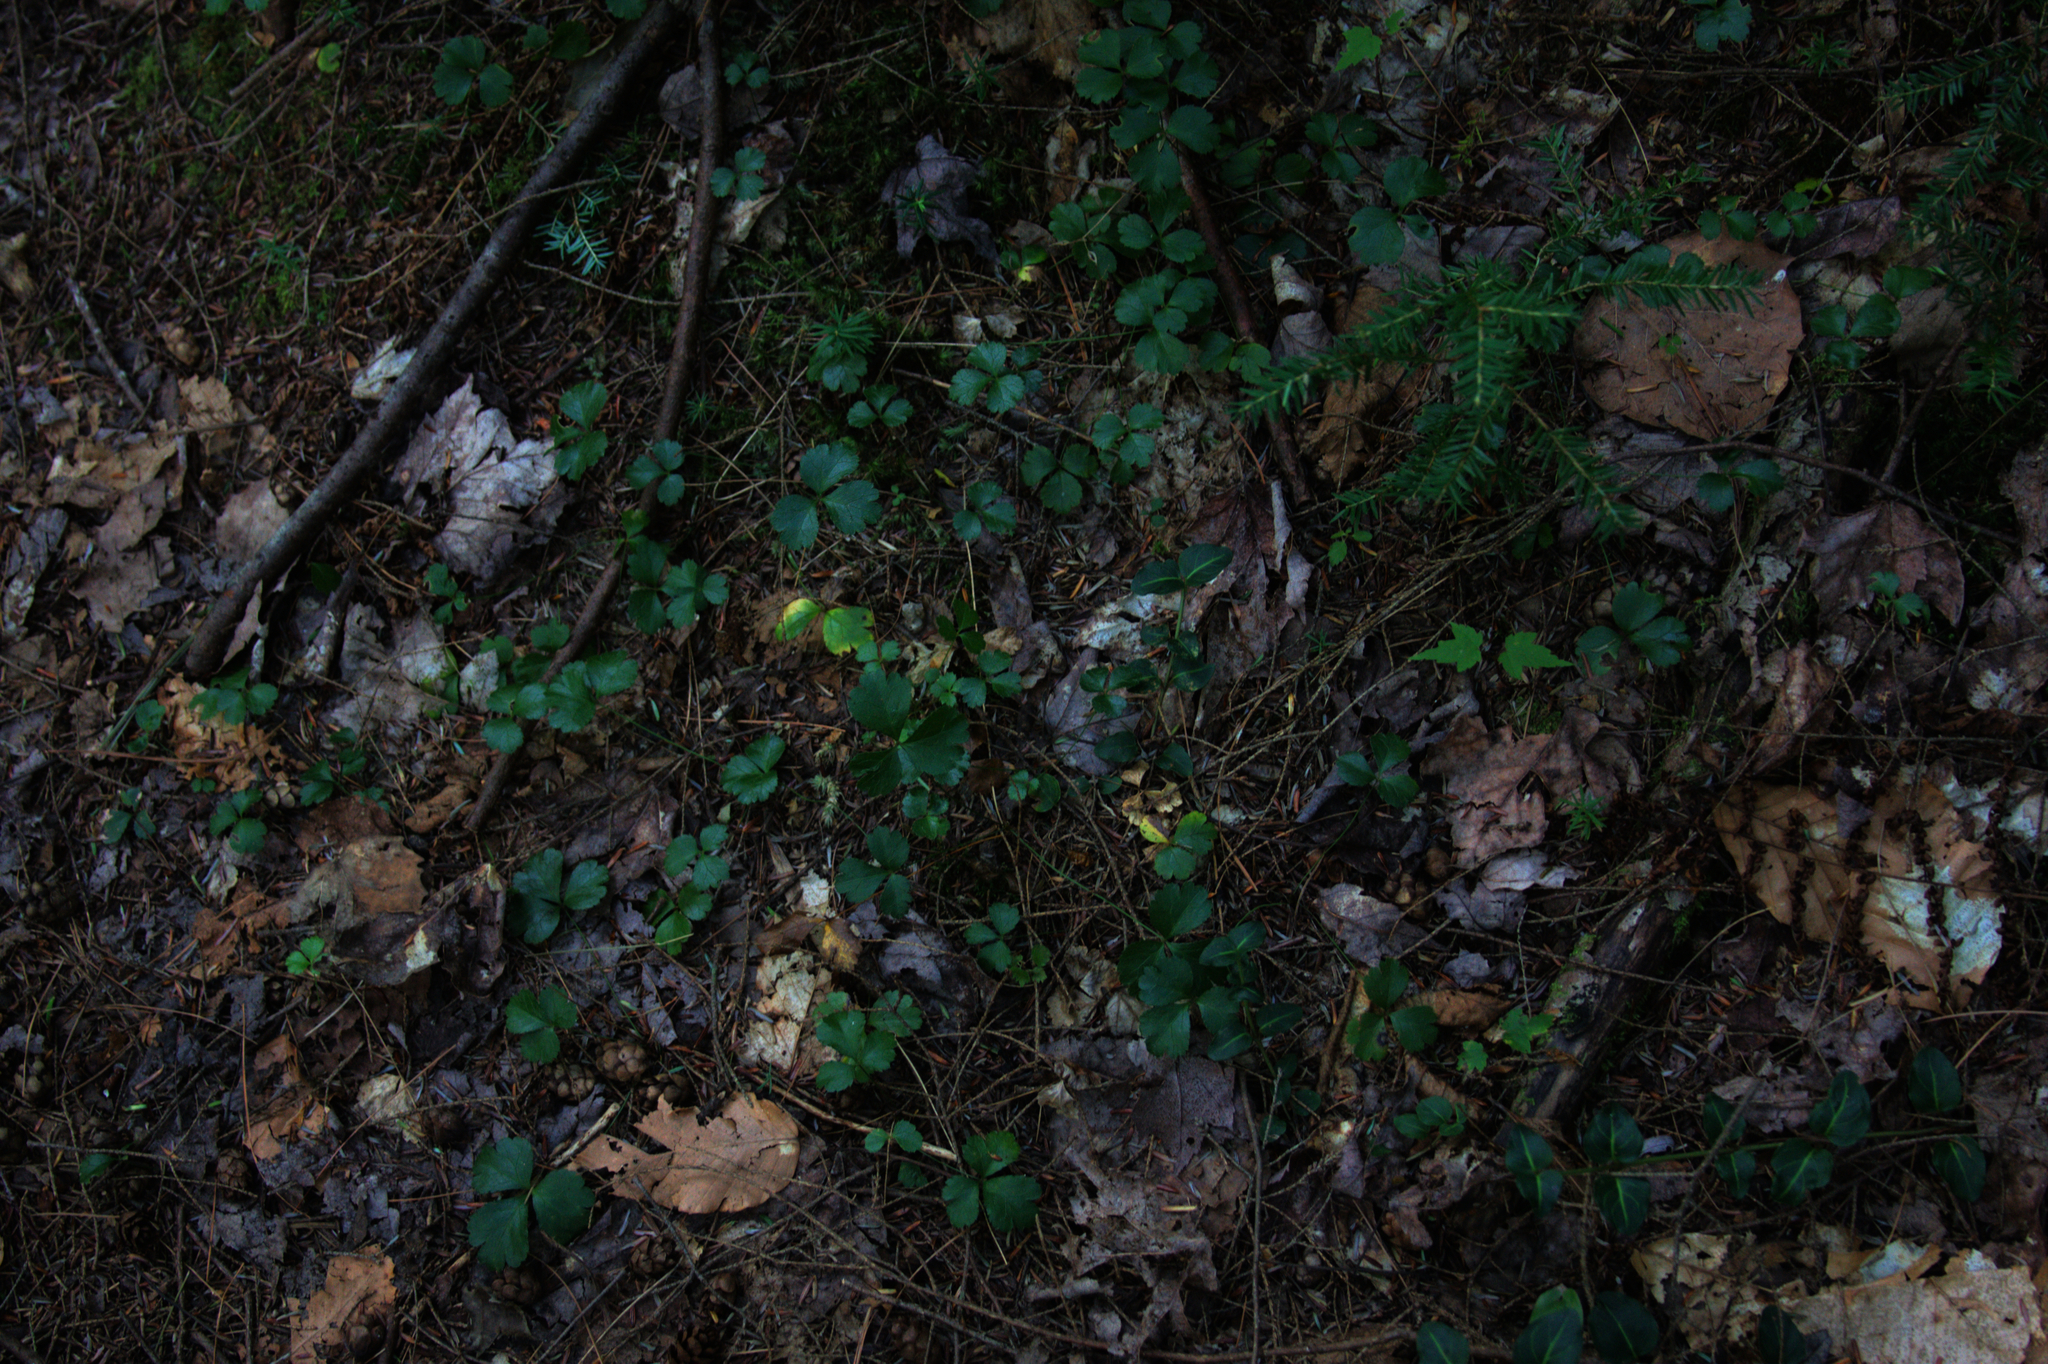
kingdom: Plantae
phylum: Tracheophyta
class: Magnoliopsida
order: Ranunculales
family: Ranunculaceae
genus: Coptis
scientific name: Coptis trifolia
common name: Canker-root
